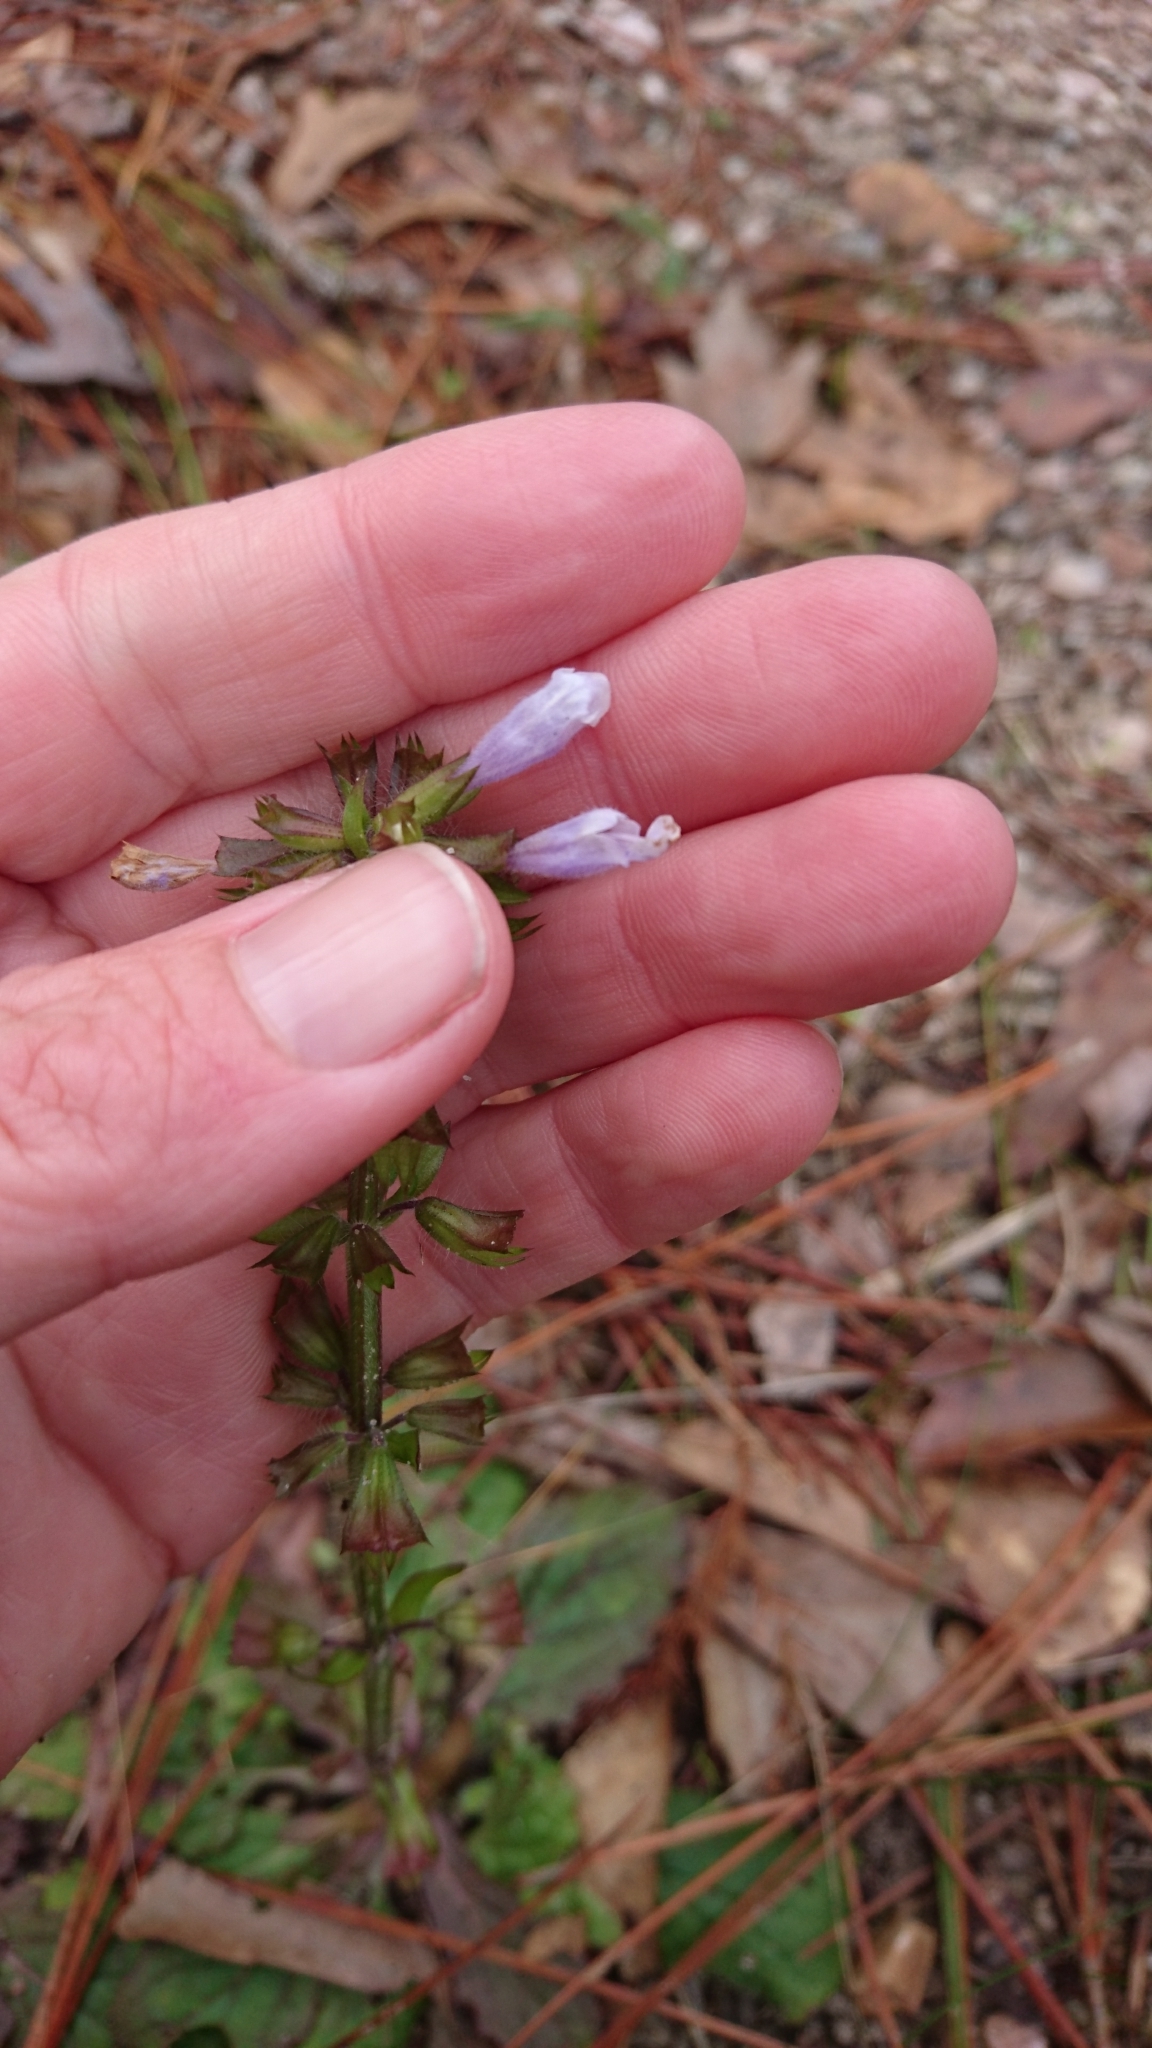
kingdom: Plantae
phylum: Tracheophyta
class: Magnoliopsida
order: Lamiales
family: Lamiaceae
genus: Salvia
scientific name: Salvia lyrata
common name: Cancerweed
